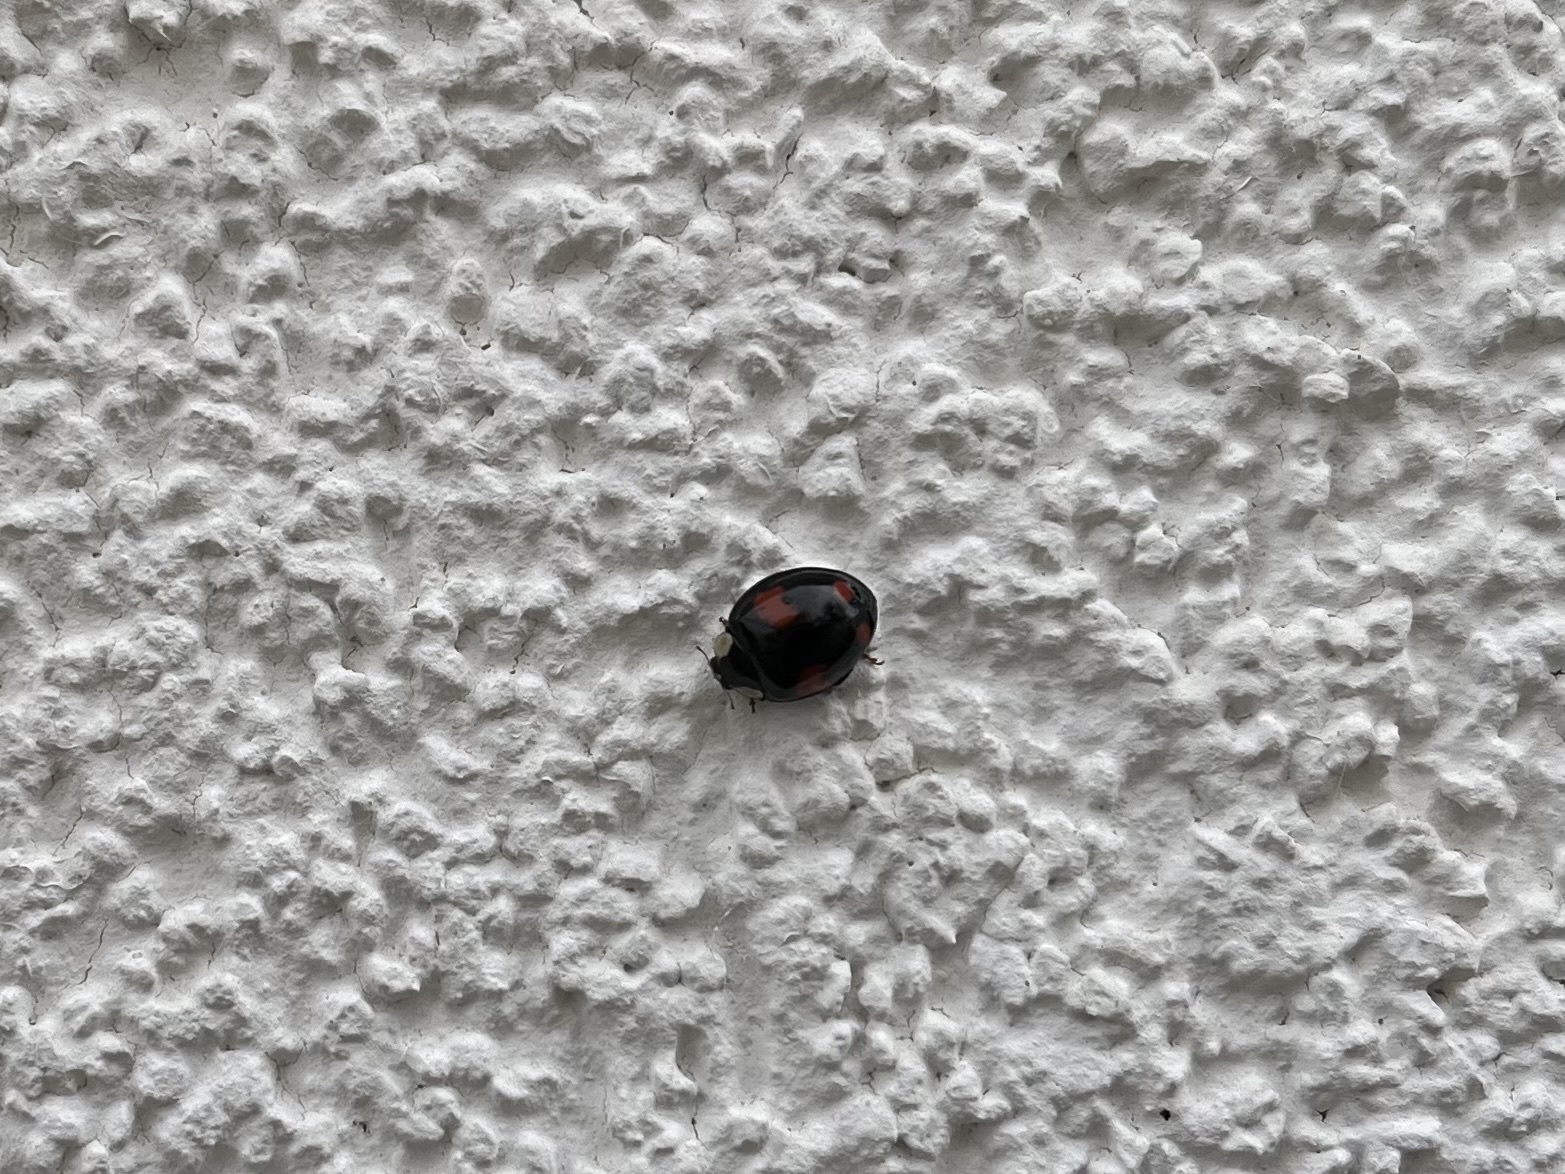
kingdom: Animalia
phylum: Arthropoda
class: Insecta
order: Coleoptera
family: Coccinellidae
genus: Harmonia
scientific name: Harmonia axyridis
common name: Harlequin ladybird
